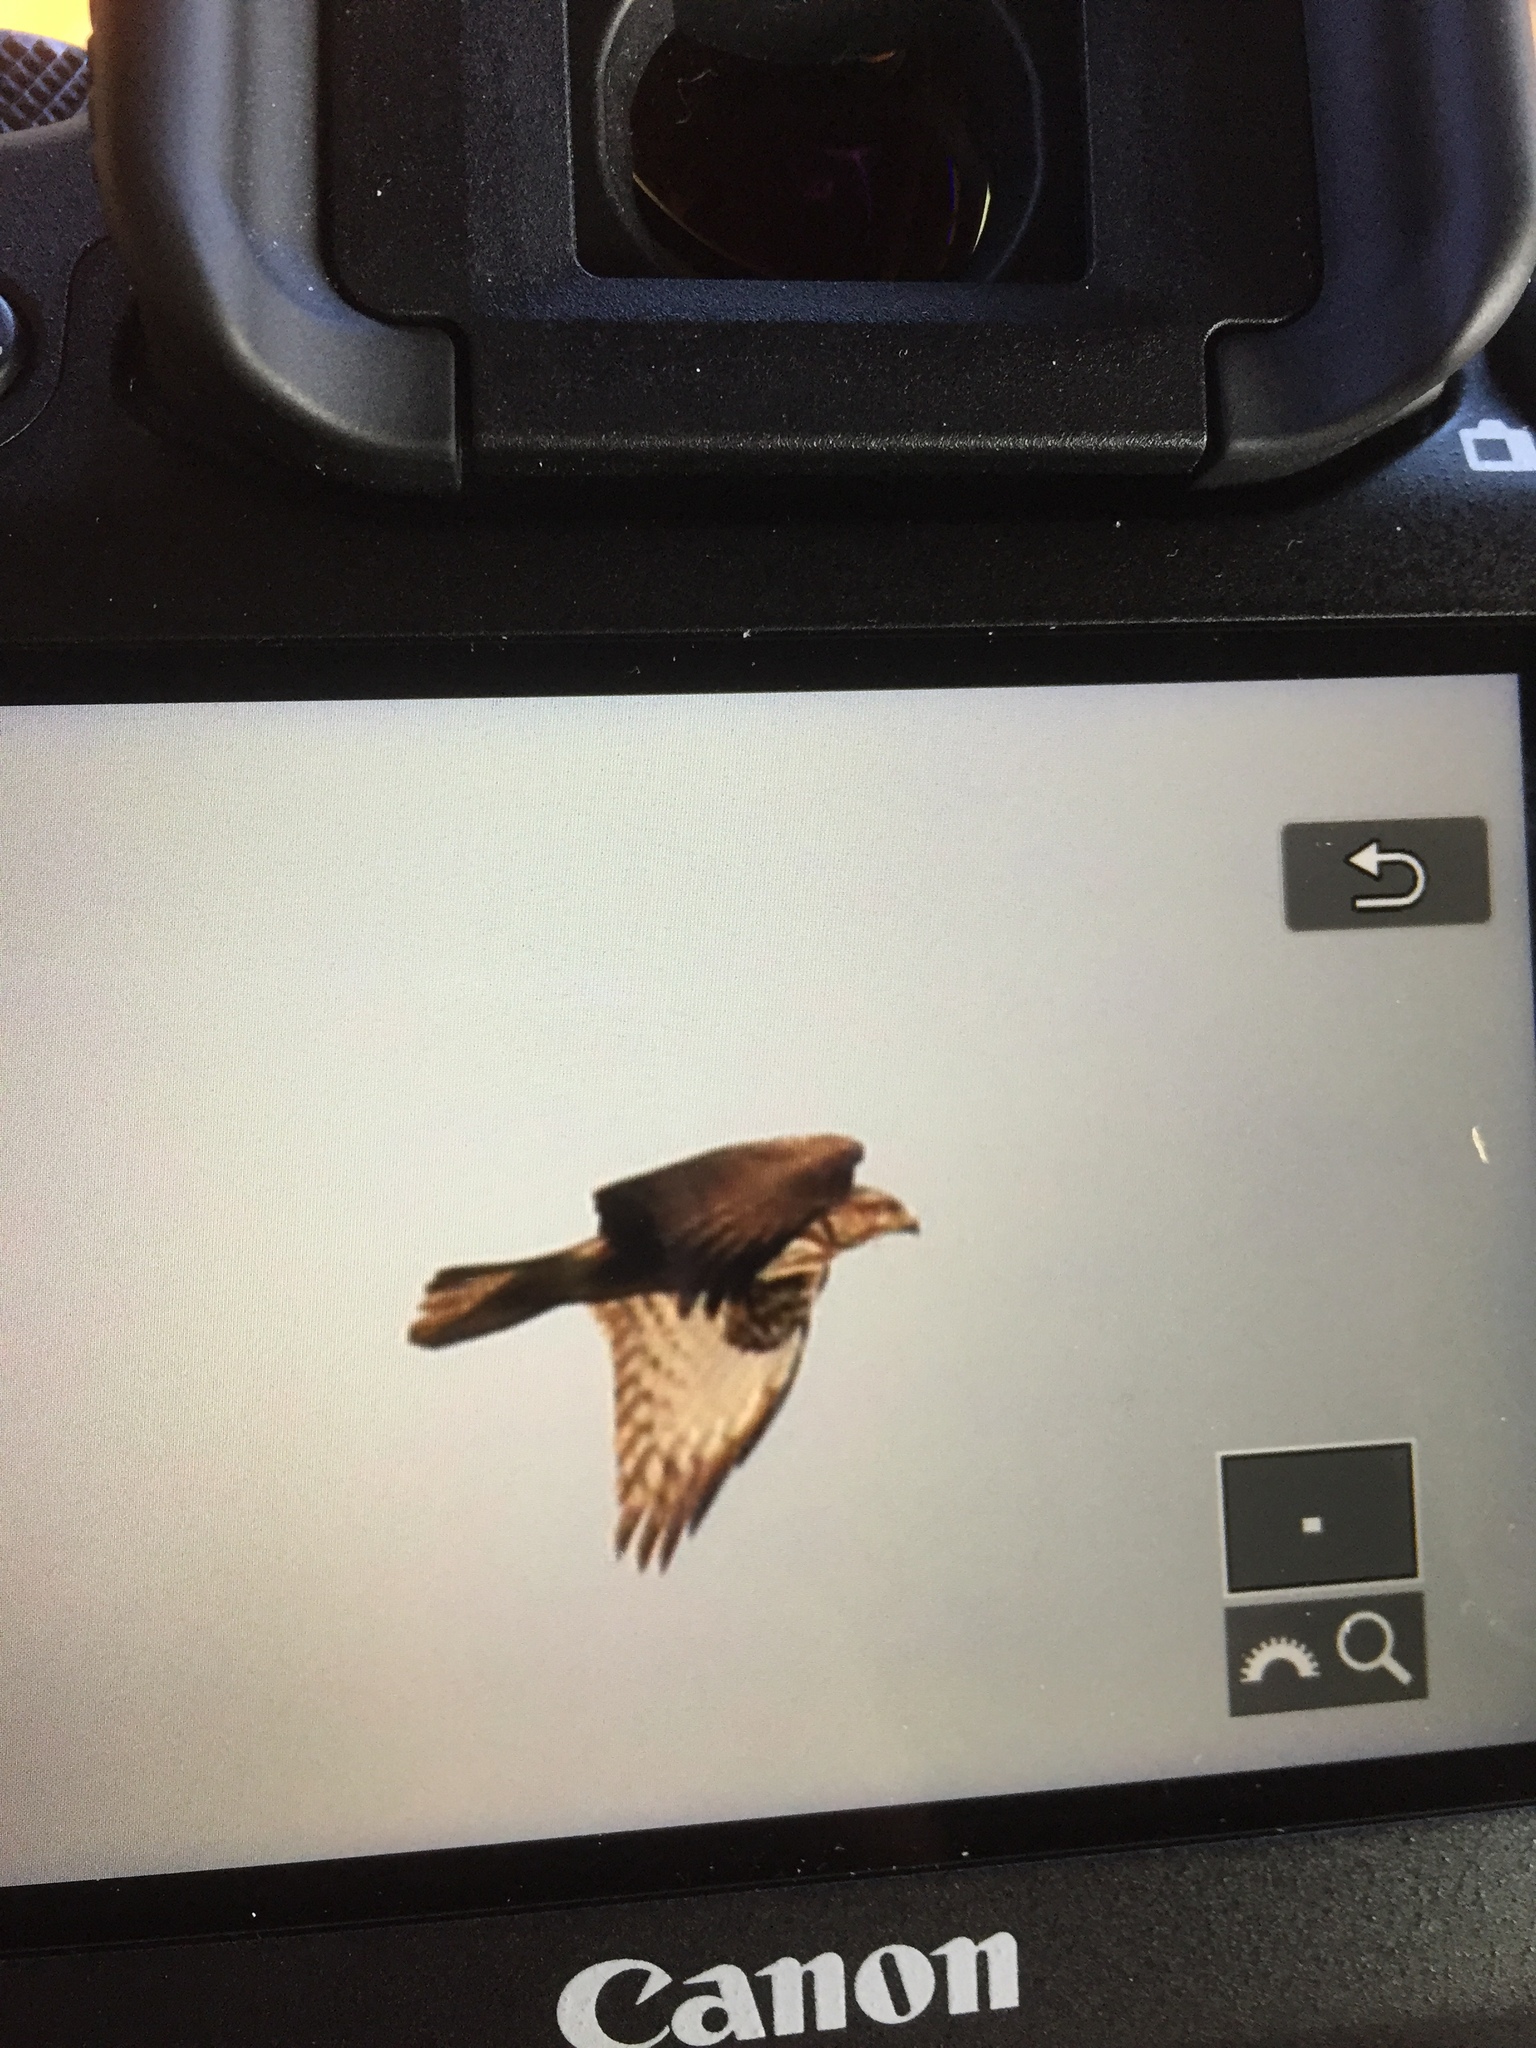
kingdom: Animalia
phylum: Chordata
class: Aves
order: Accipitriformes
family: Accipitridae
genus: Buteo
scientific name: Buteo buteo
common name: Common buzzard
